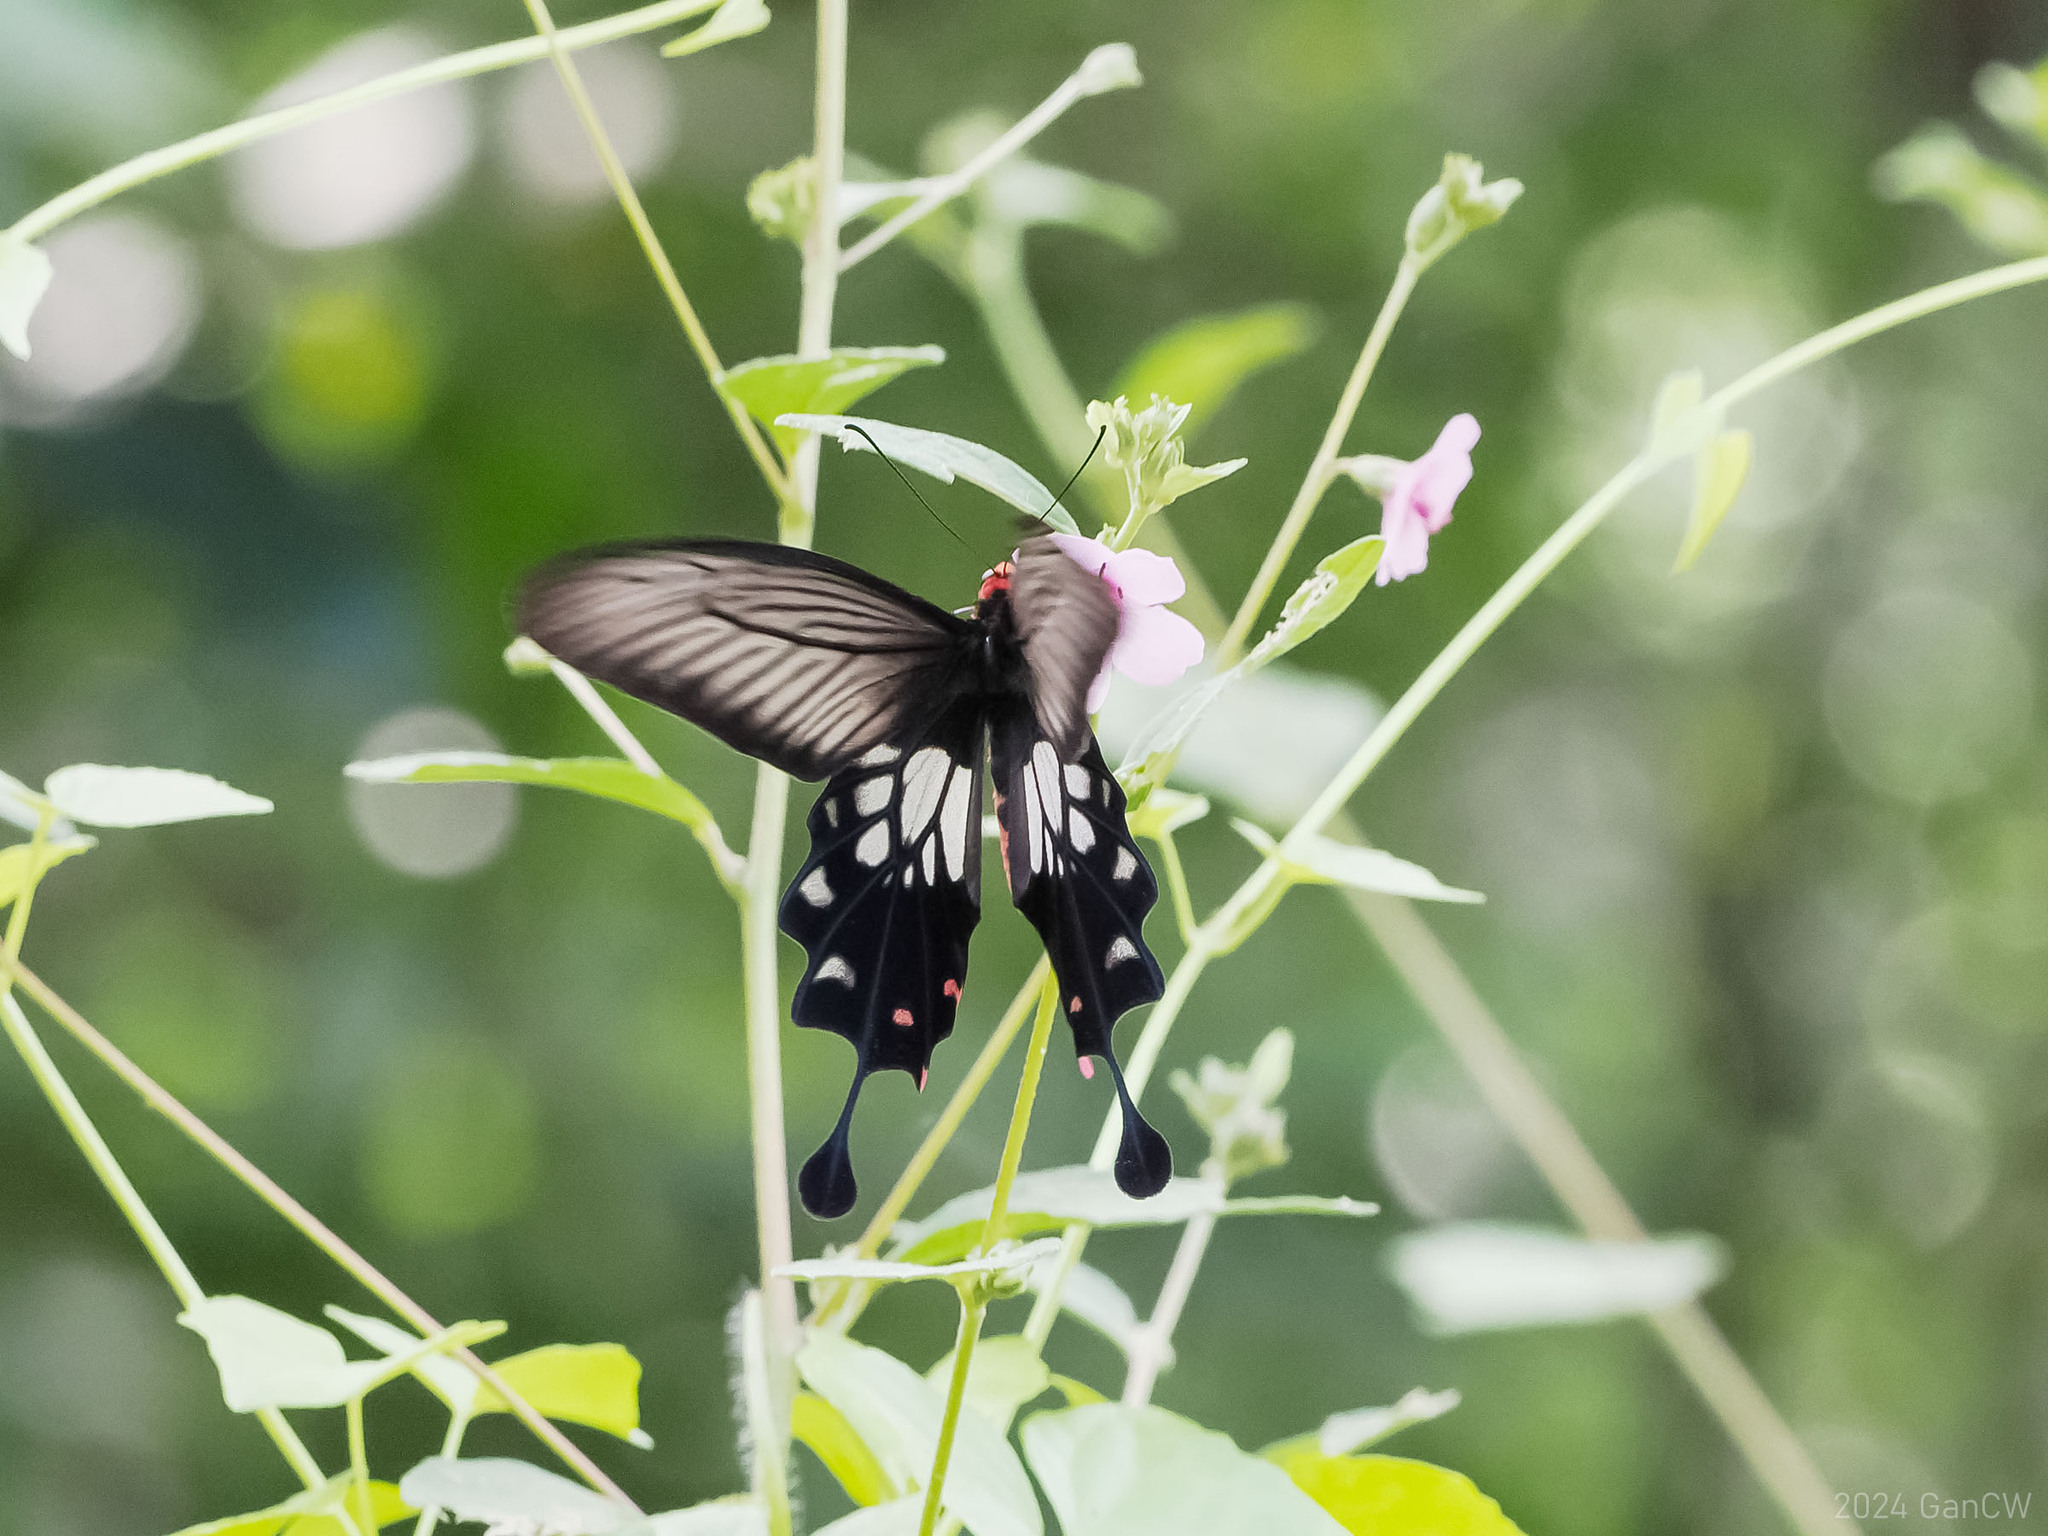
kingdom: Animalia
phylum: Arthropoda
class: Insecta
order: Lepidoptera
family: Papilionidae
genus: Losaria
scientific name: Losaria
